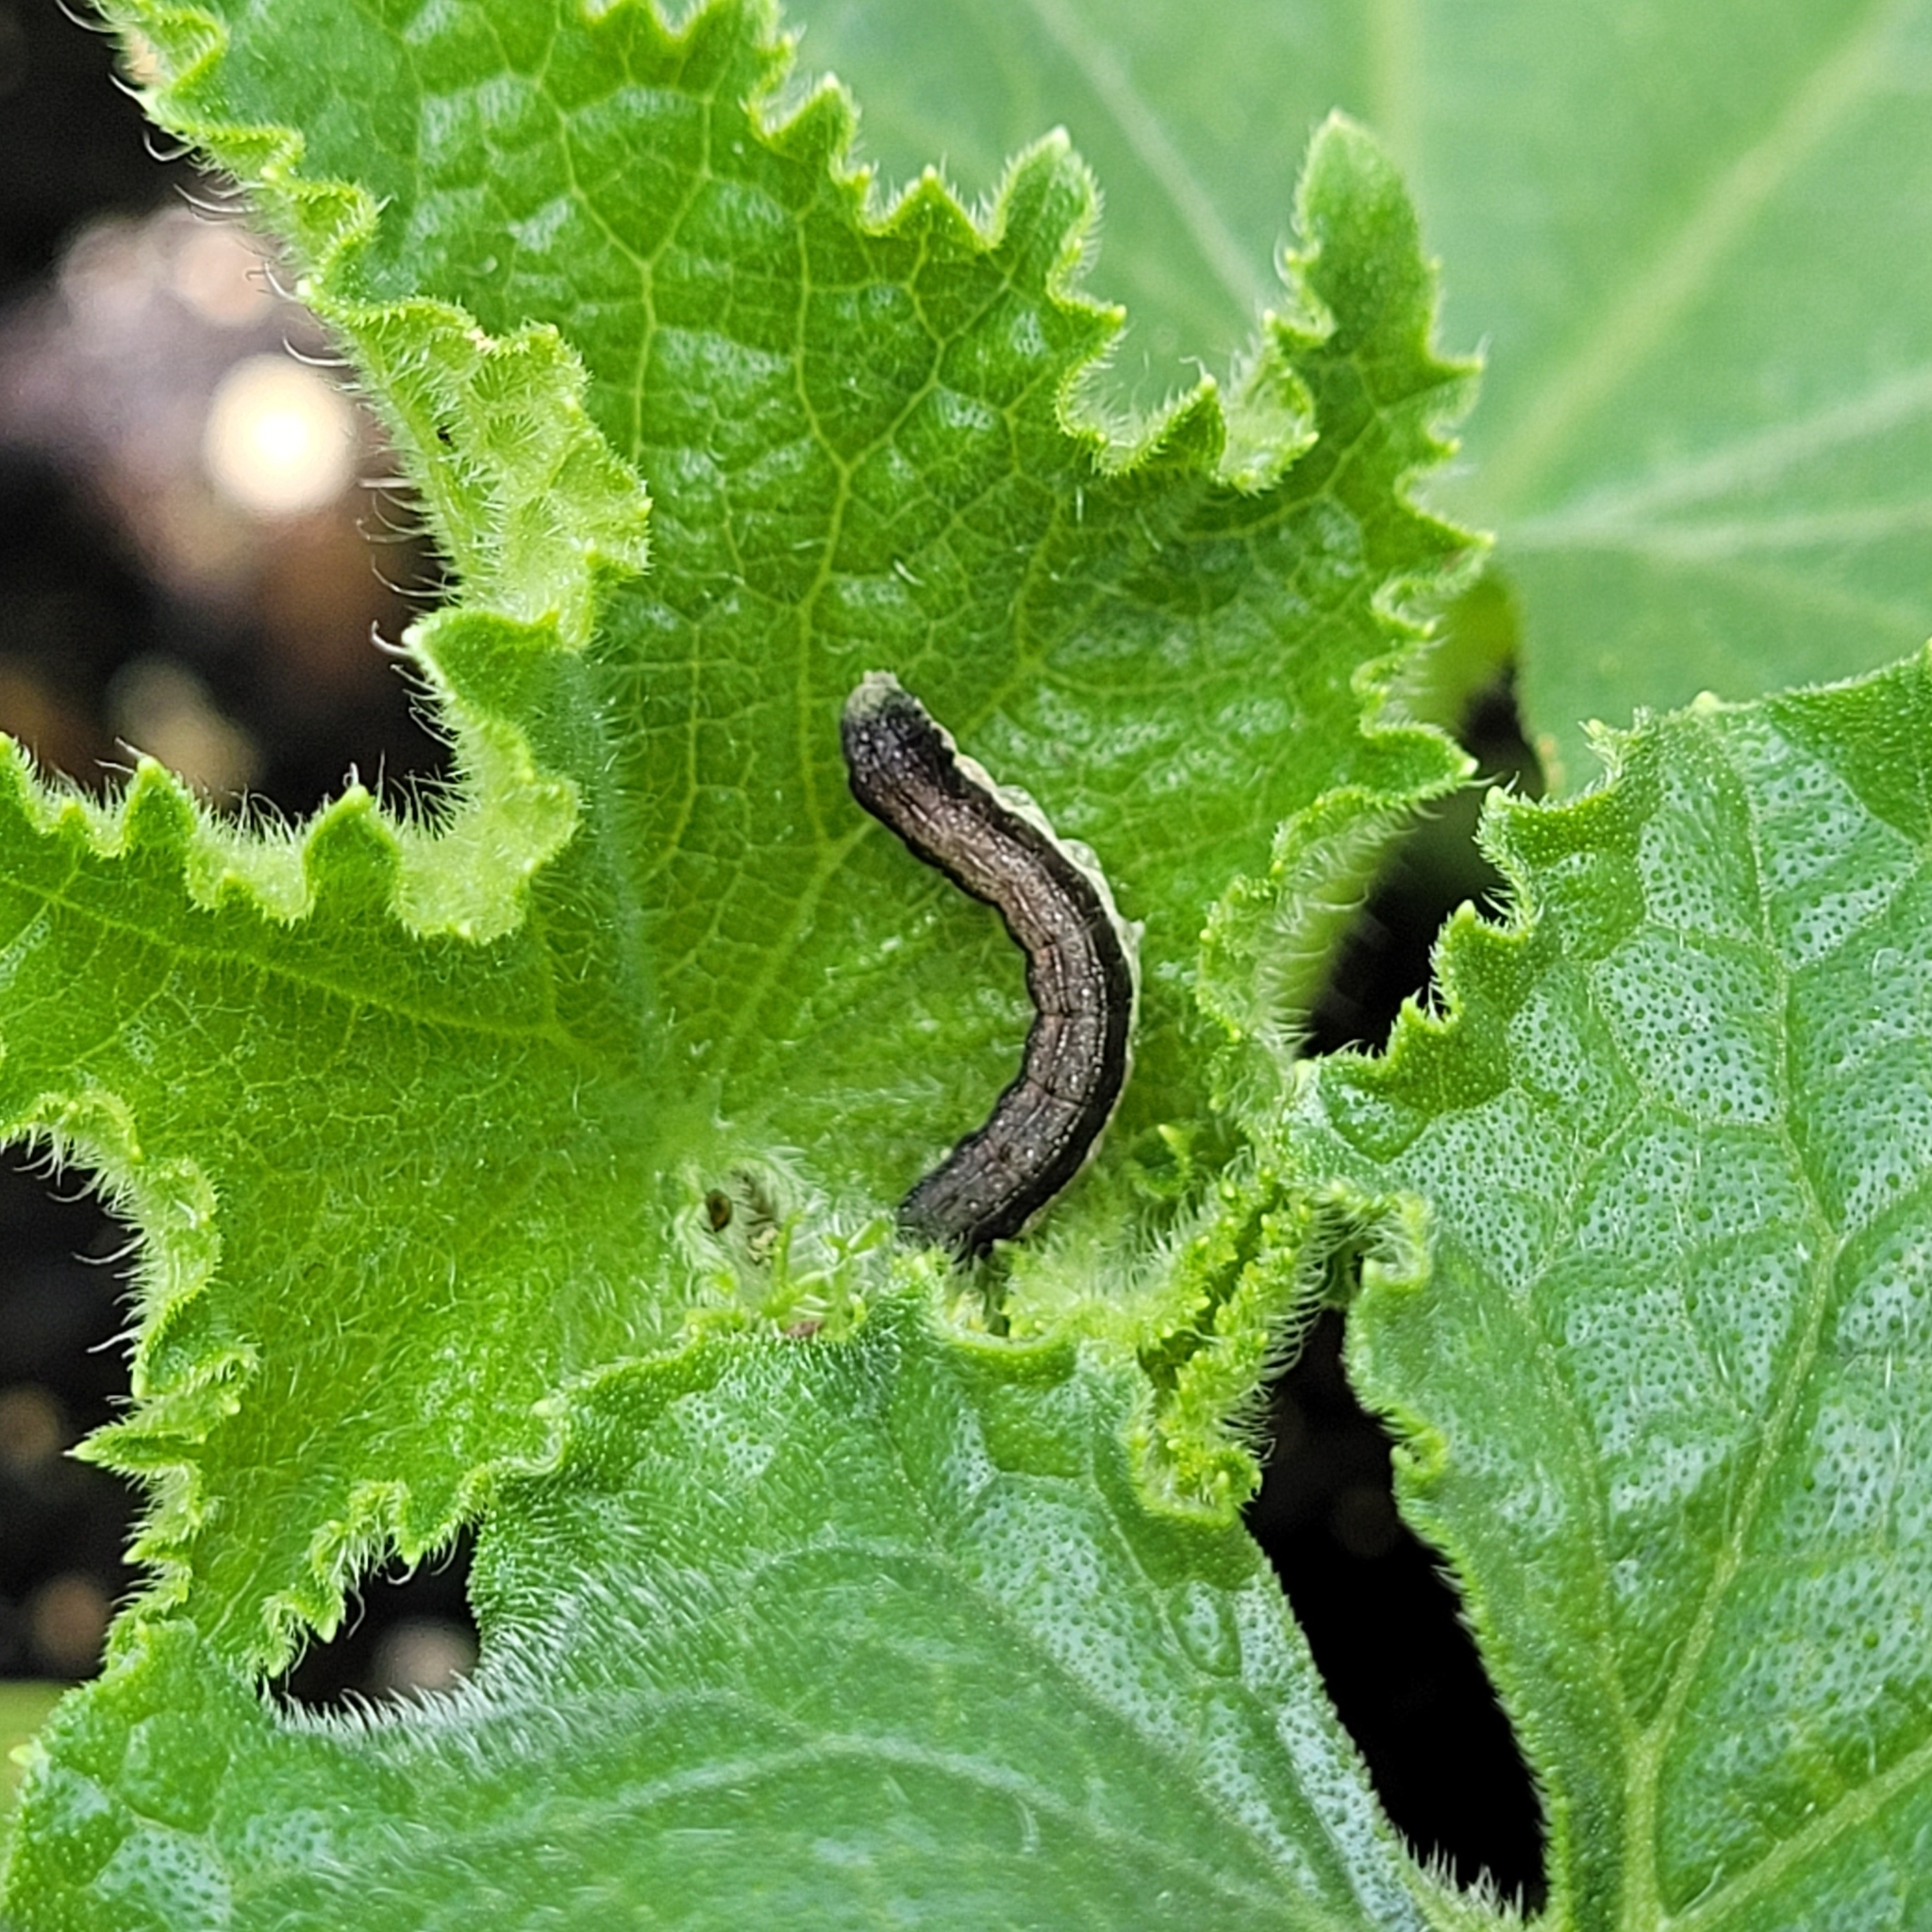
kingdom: Animalia
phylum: Arthropoda
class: Insecta
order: Lepidoptera
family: Noctuidae
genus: Crocigrapha
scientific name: Crocigrapha normani
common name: Norman's quaker
